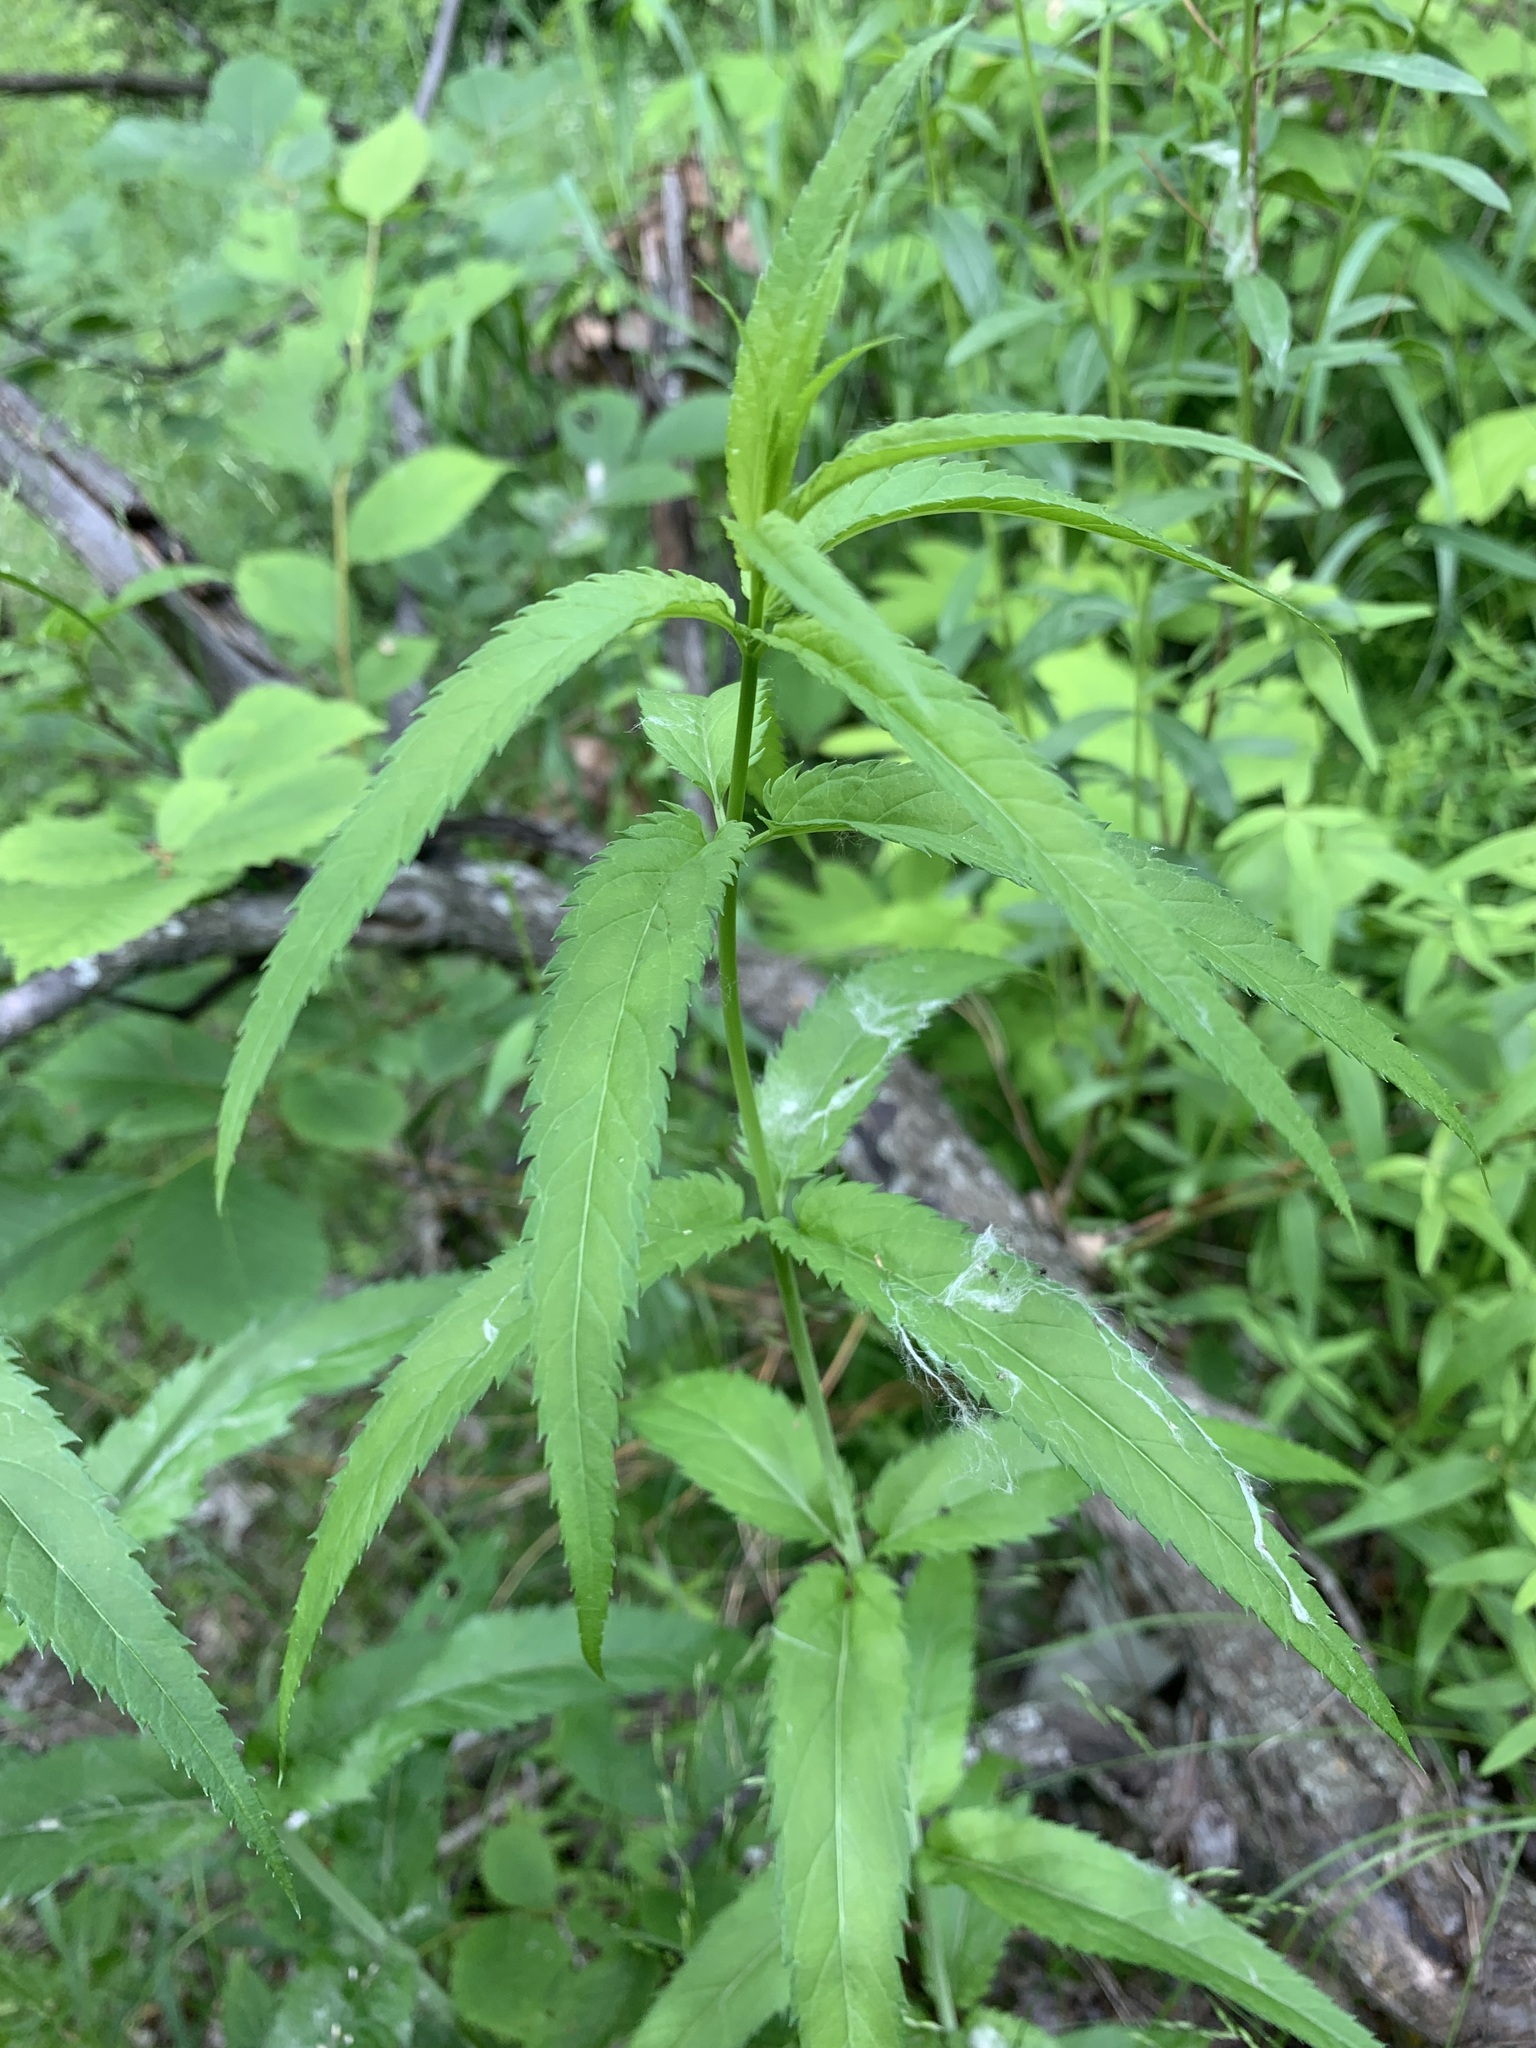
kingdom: Plantae
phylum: Tracheophyta
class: Magnoliopsida
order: Lamiales
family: Plantaginaceae
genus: Veronica
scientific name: Veronica longifolia
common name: Garden speedwell
